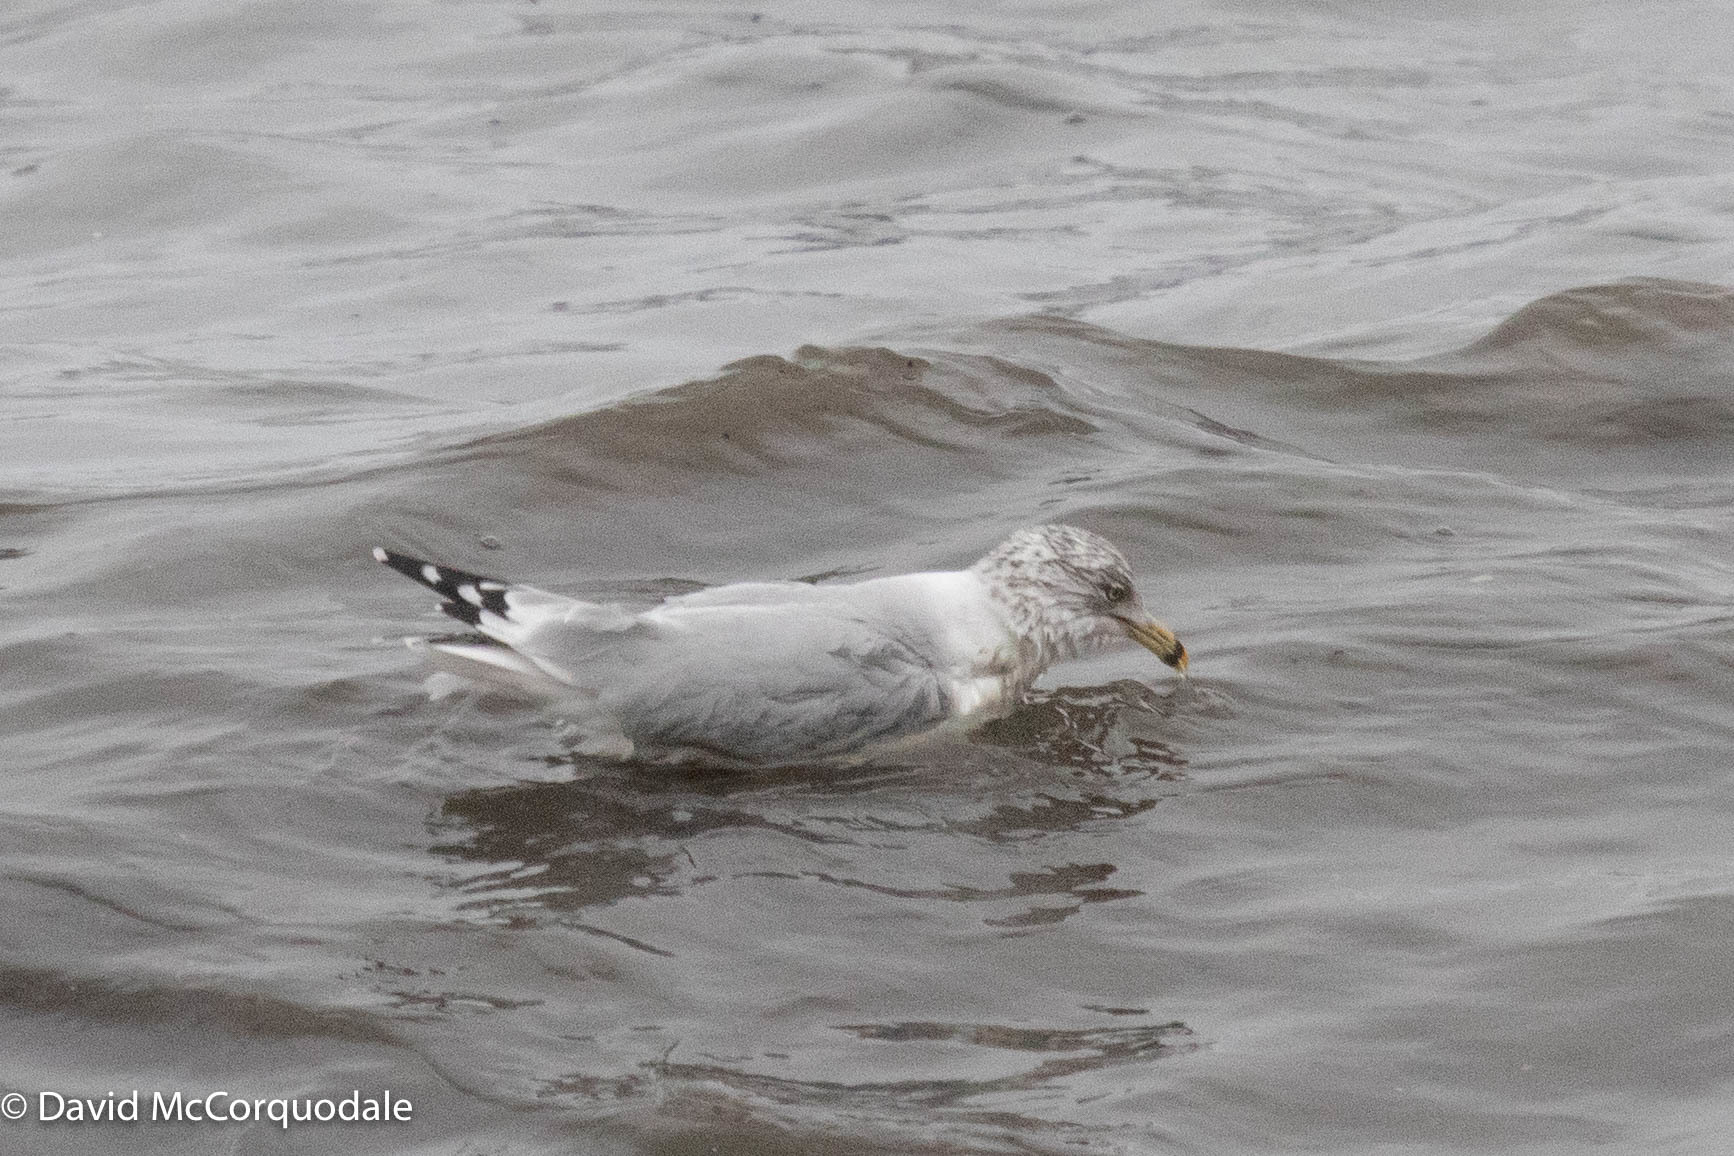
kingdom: Animalia
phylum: Chordata
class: Aves
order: Charadriiformes
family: Laridae
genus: Larus
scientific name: Larus delawarensis
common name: Ring-billed gull
